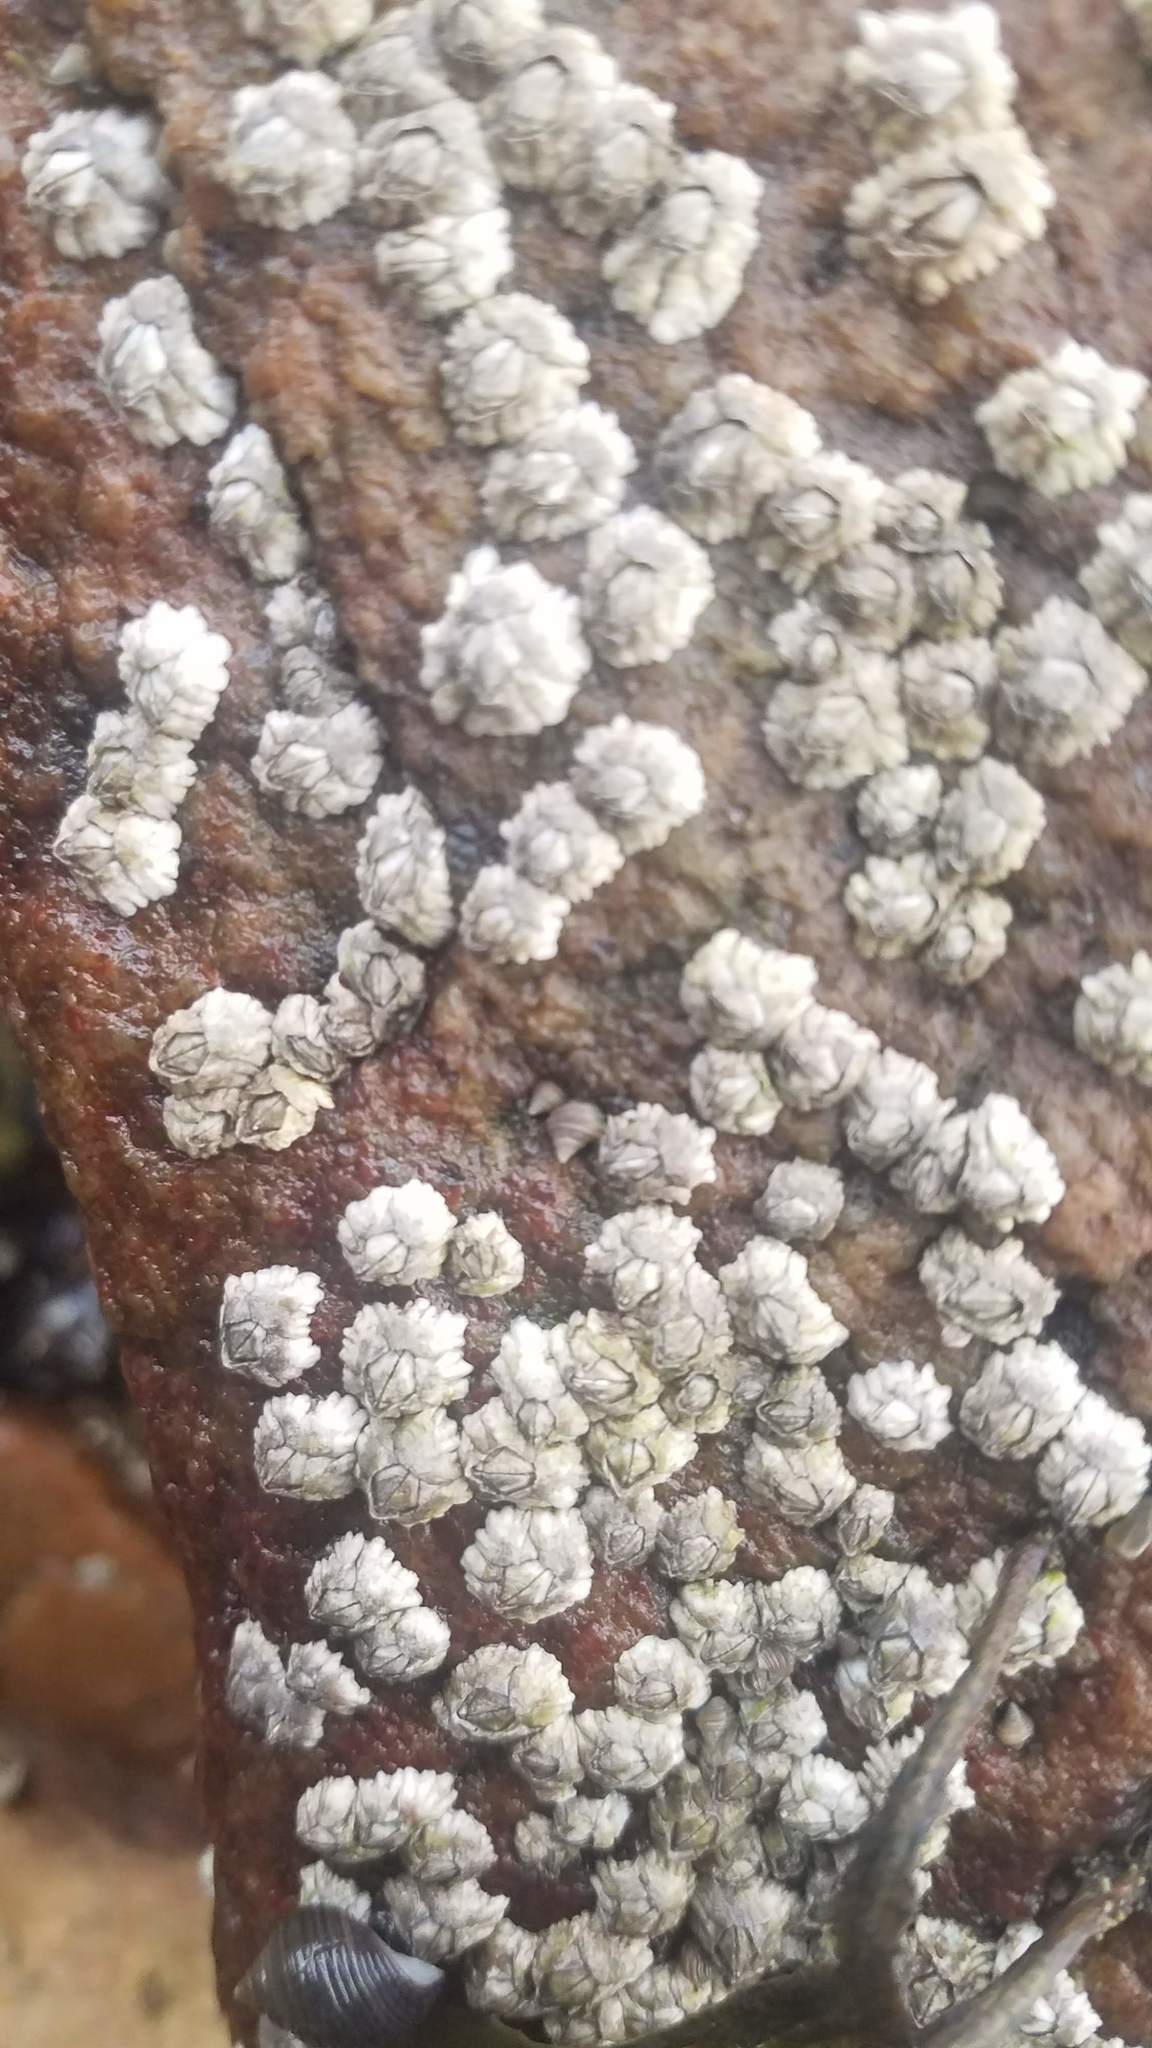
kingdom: Animalia
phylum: Arthropoda
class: Maxillopoda
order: Sessilia
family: Archaeobalanidae
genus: Semibalanus
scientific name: Semibalanus balanoides
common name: Acorn barnacle
